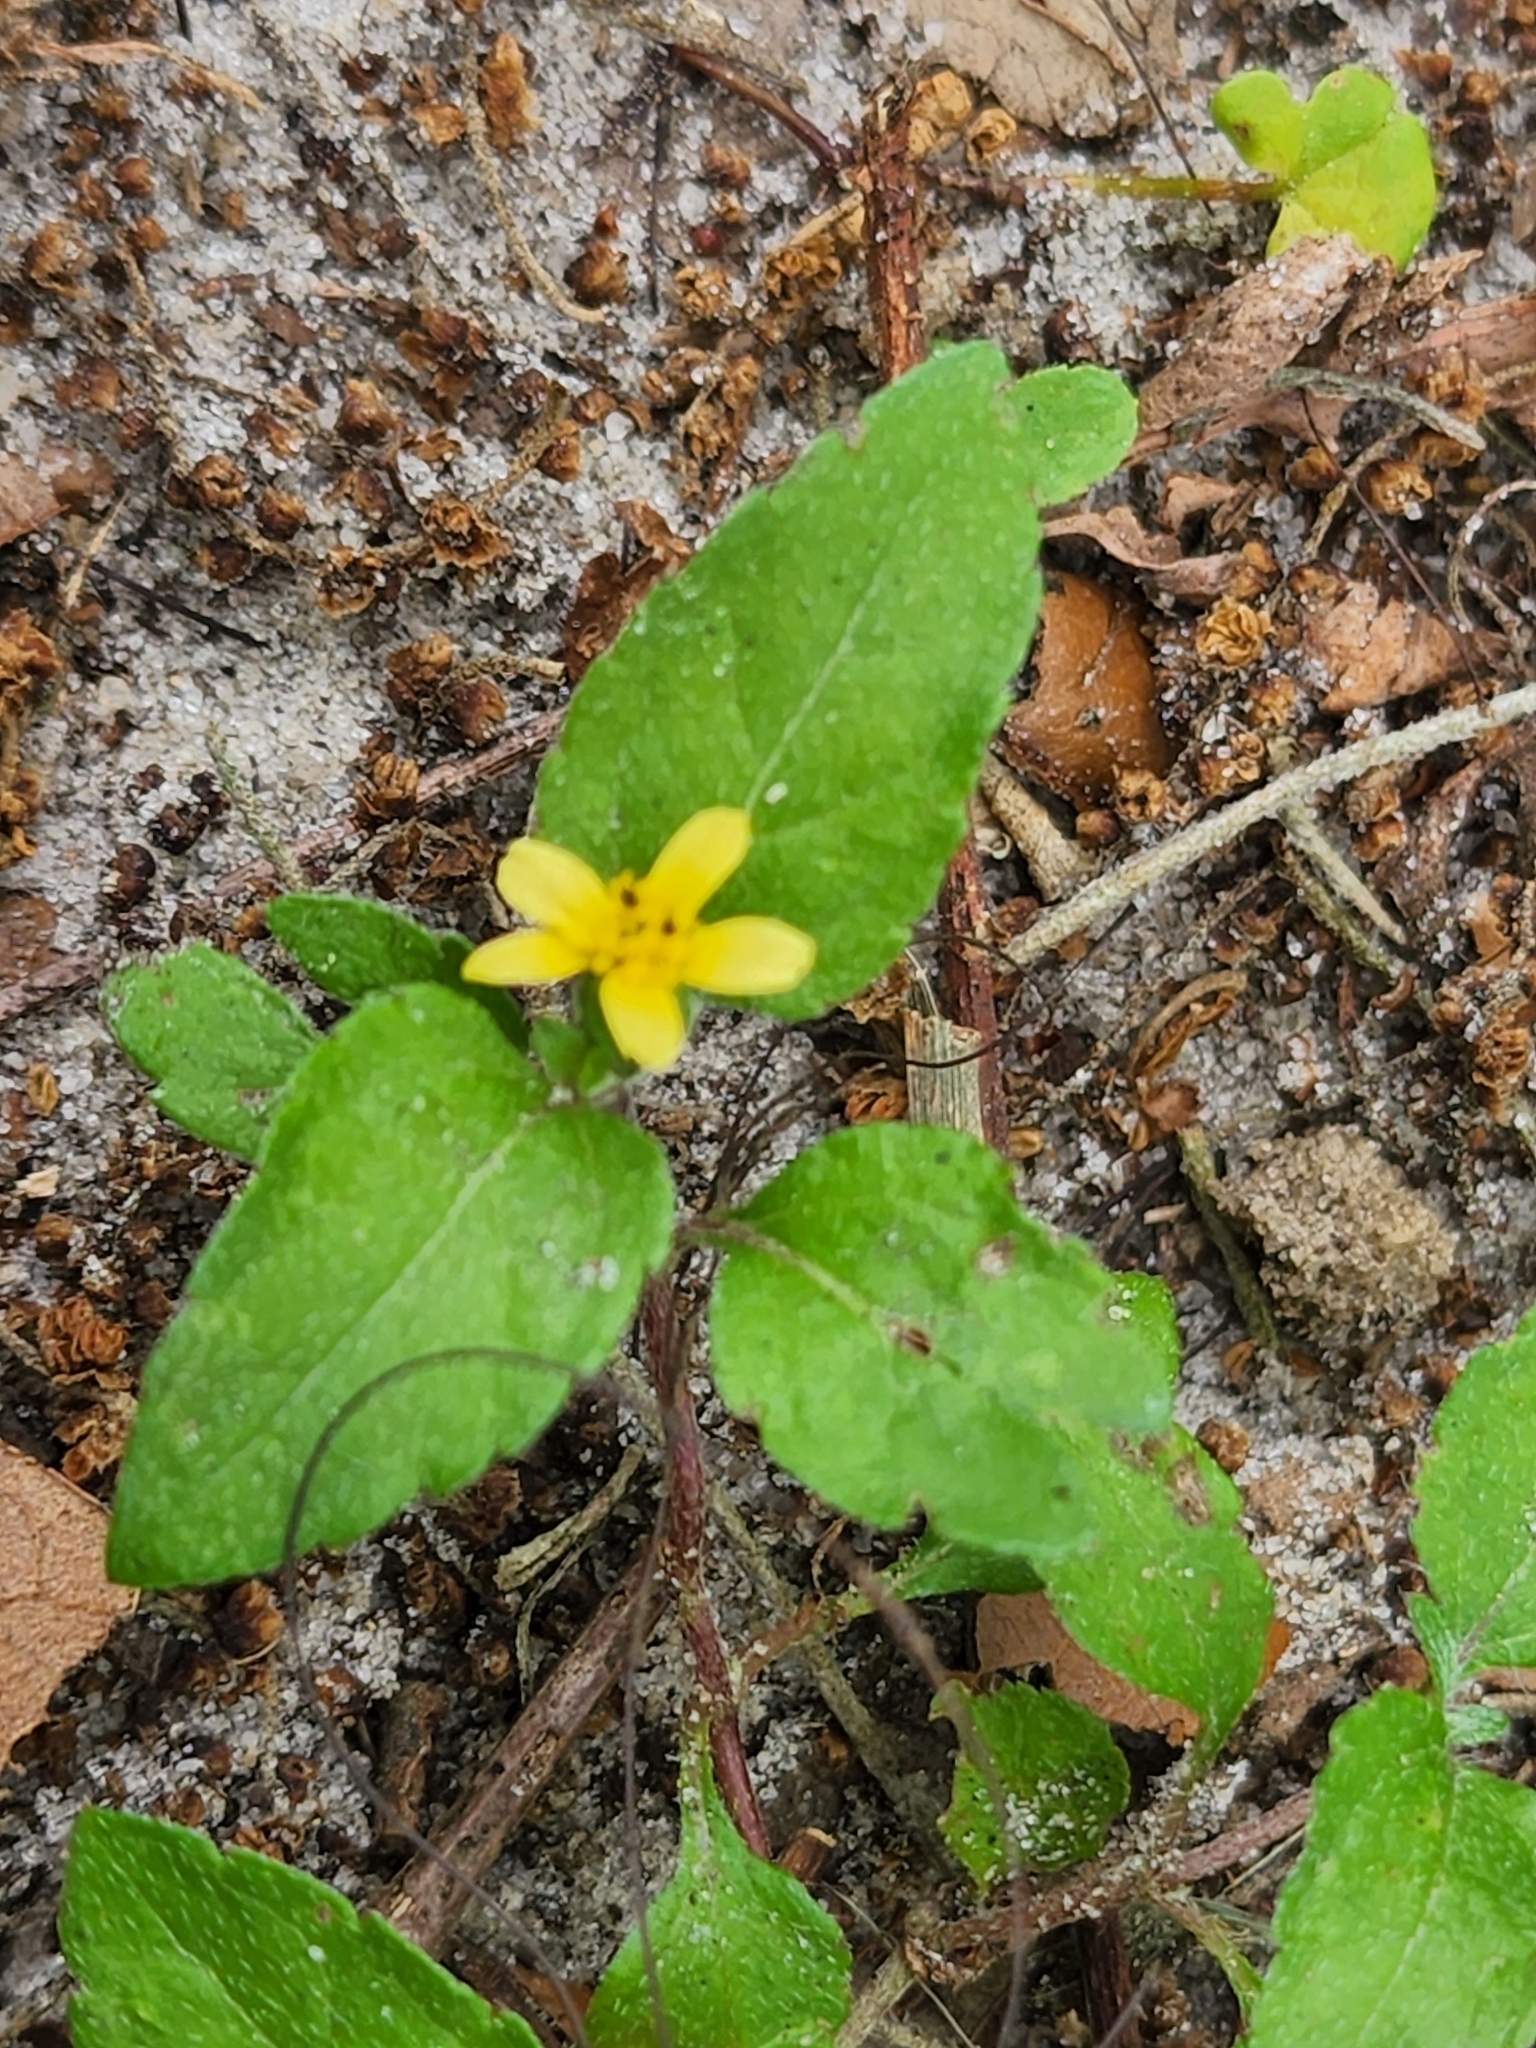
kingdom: Plantae
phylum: Tracheophyta
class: Magnoliopsida
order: Asterales
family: Asteraceae
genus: Calyptocarpus
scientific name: Calyptocarpus vialis
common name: Straggler daisy
